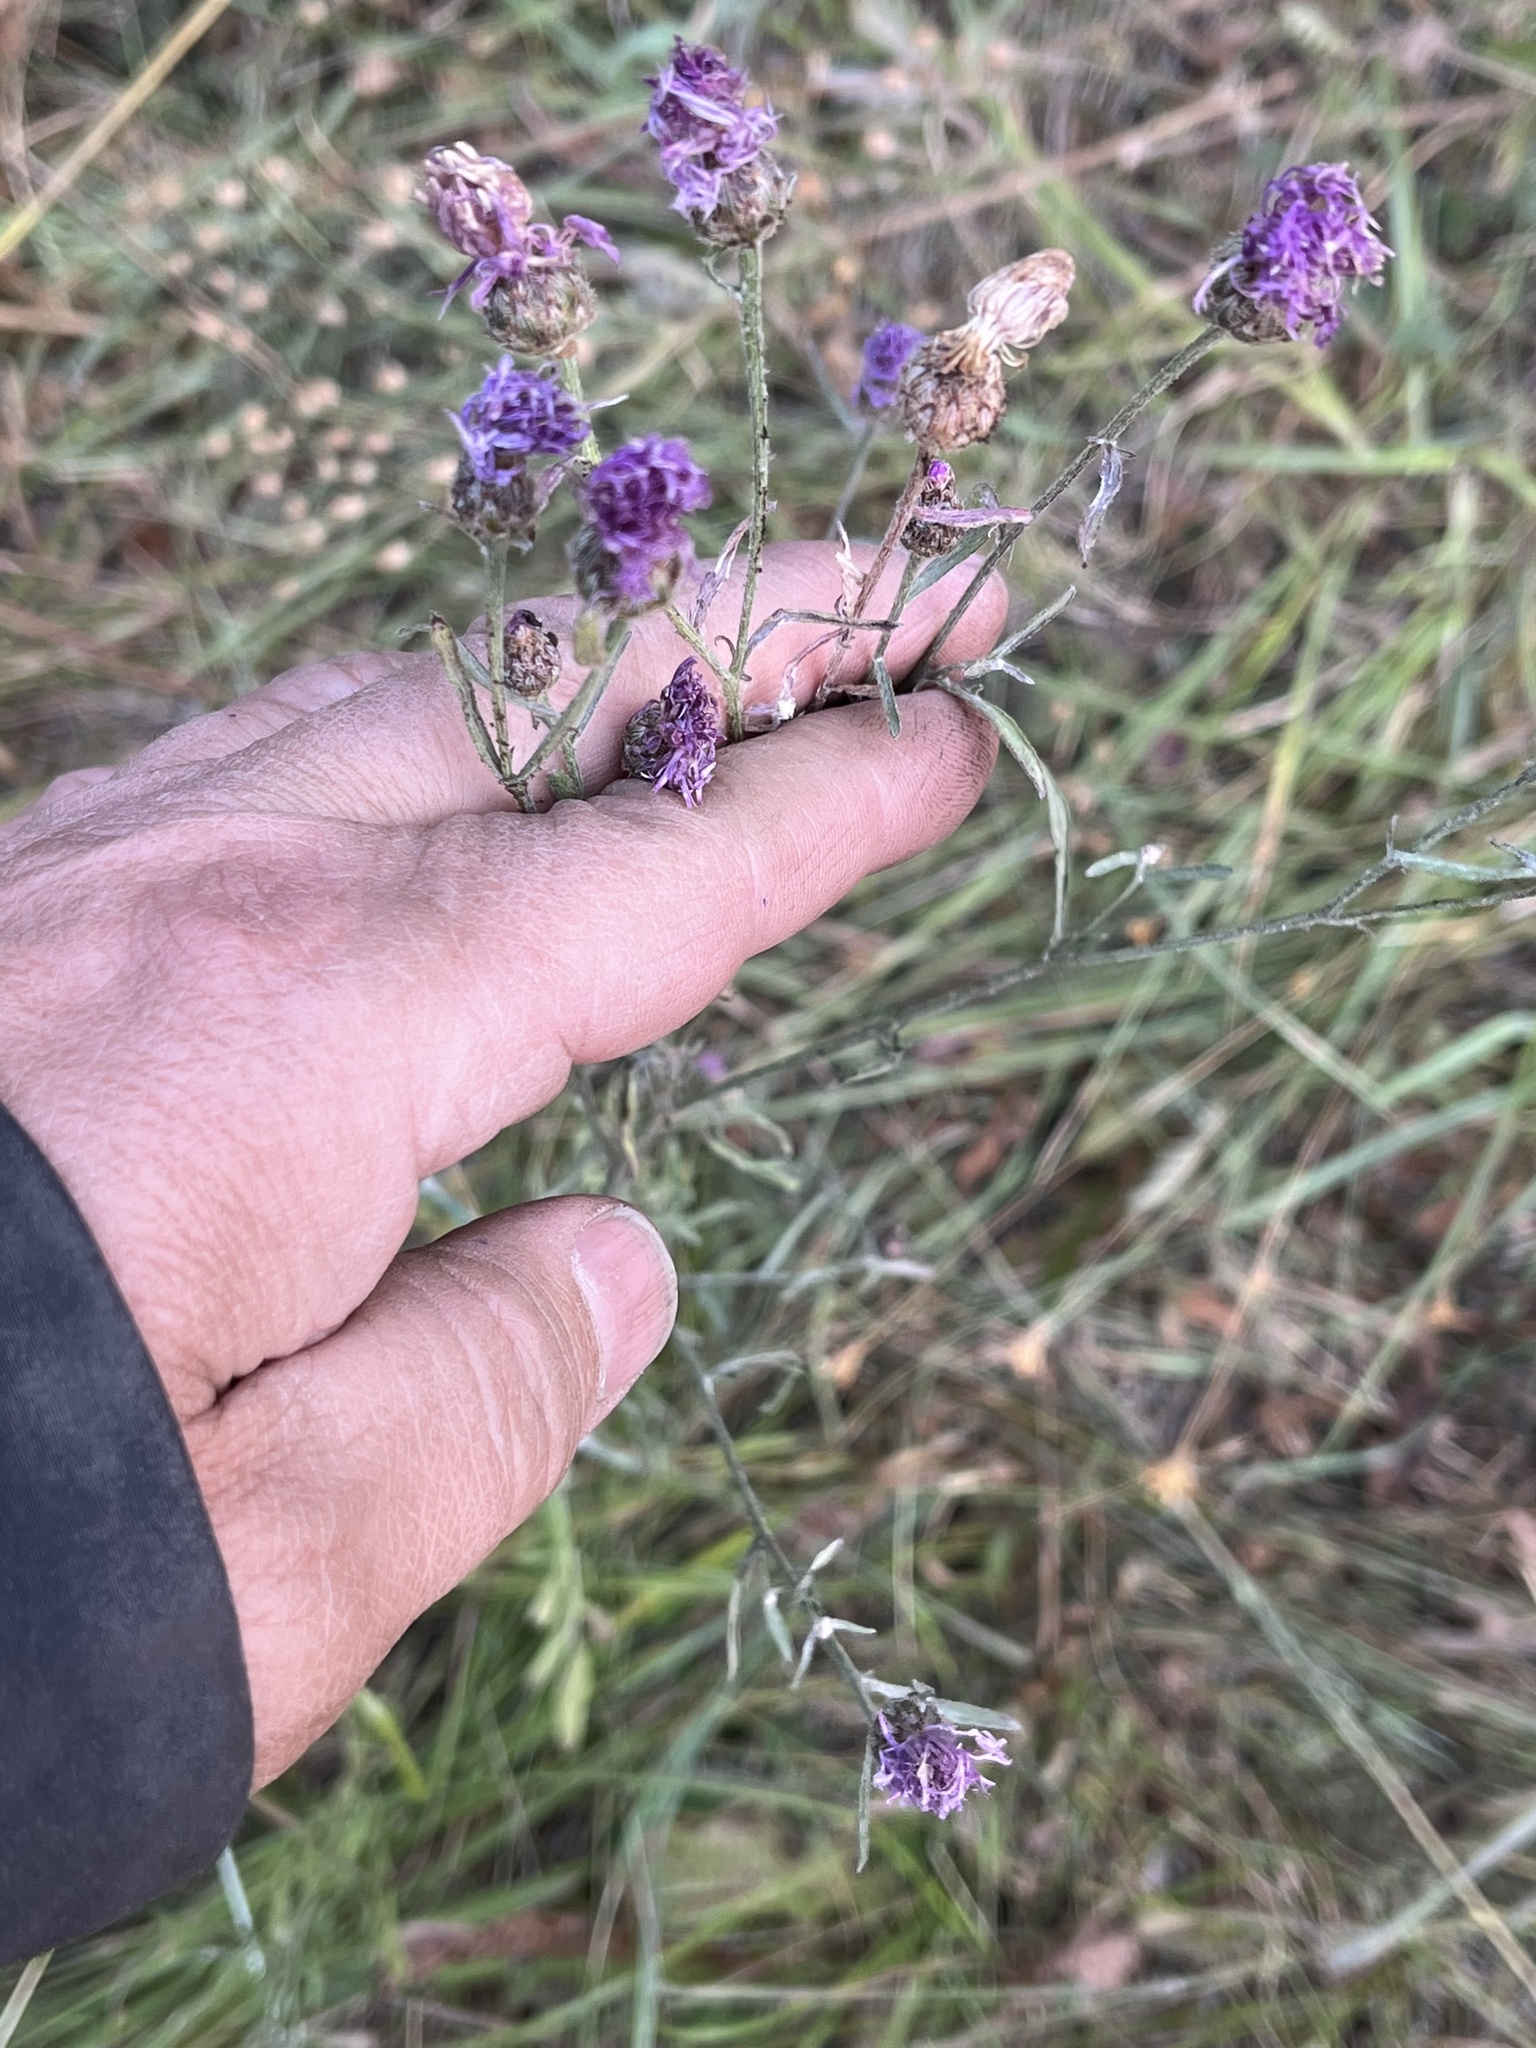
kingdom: Plantae
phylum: Tracheophyta
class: Magnoliopsida
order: Asterales
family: Asteraceae
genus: Centaurea
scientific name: Centaurea stoebe
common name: Spotted knapweed
